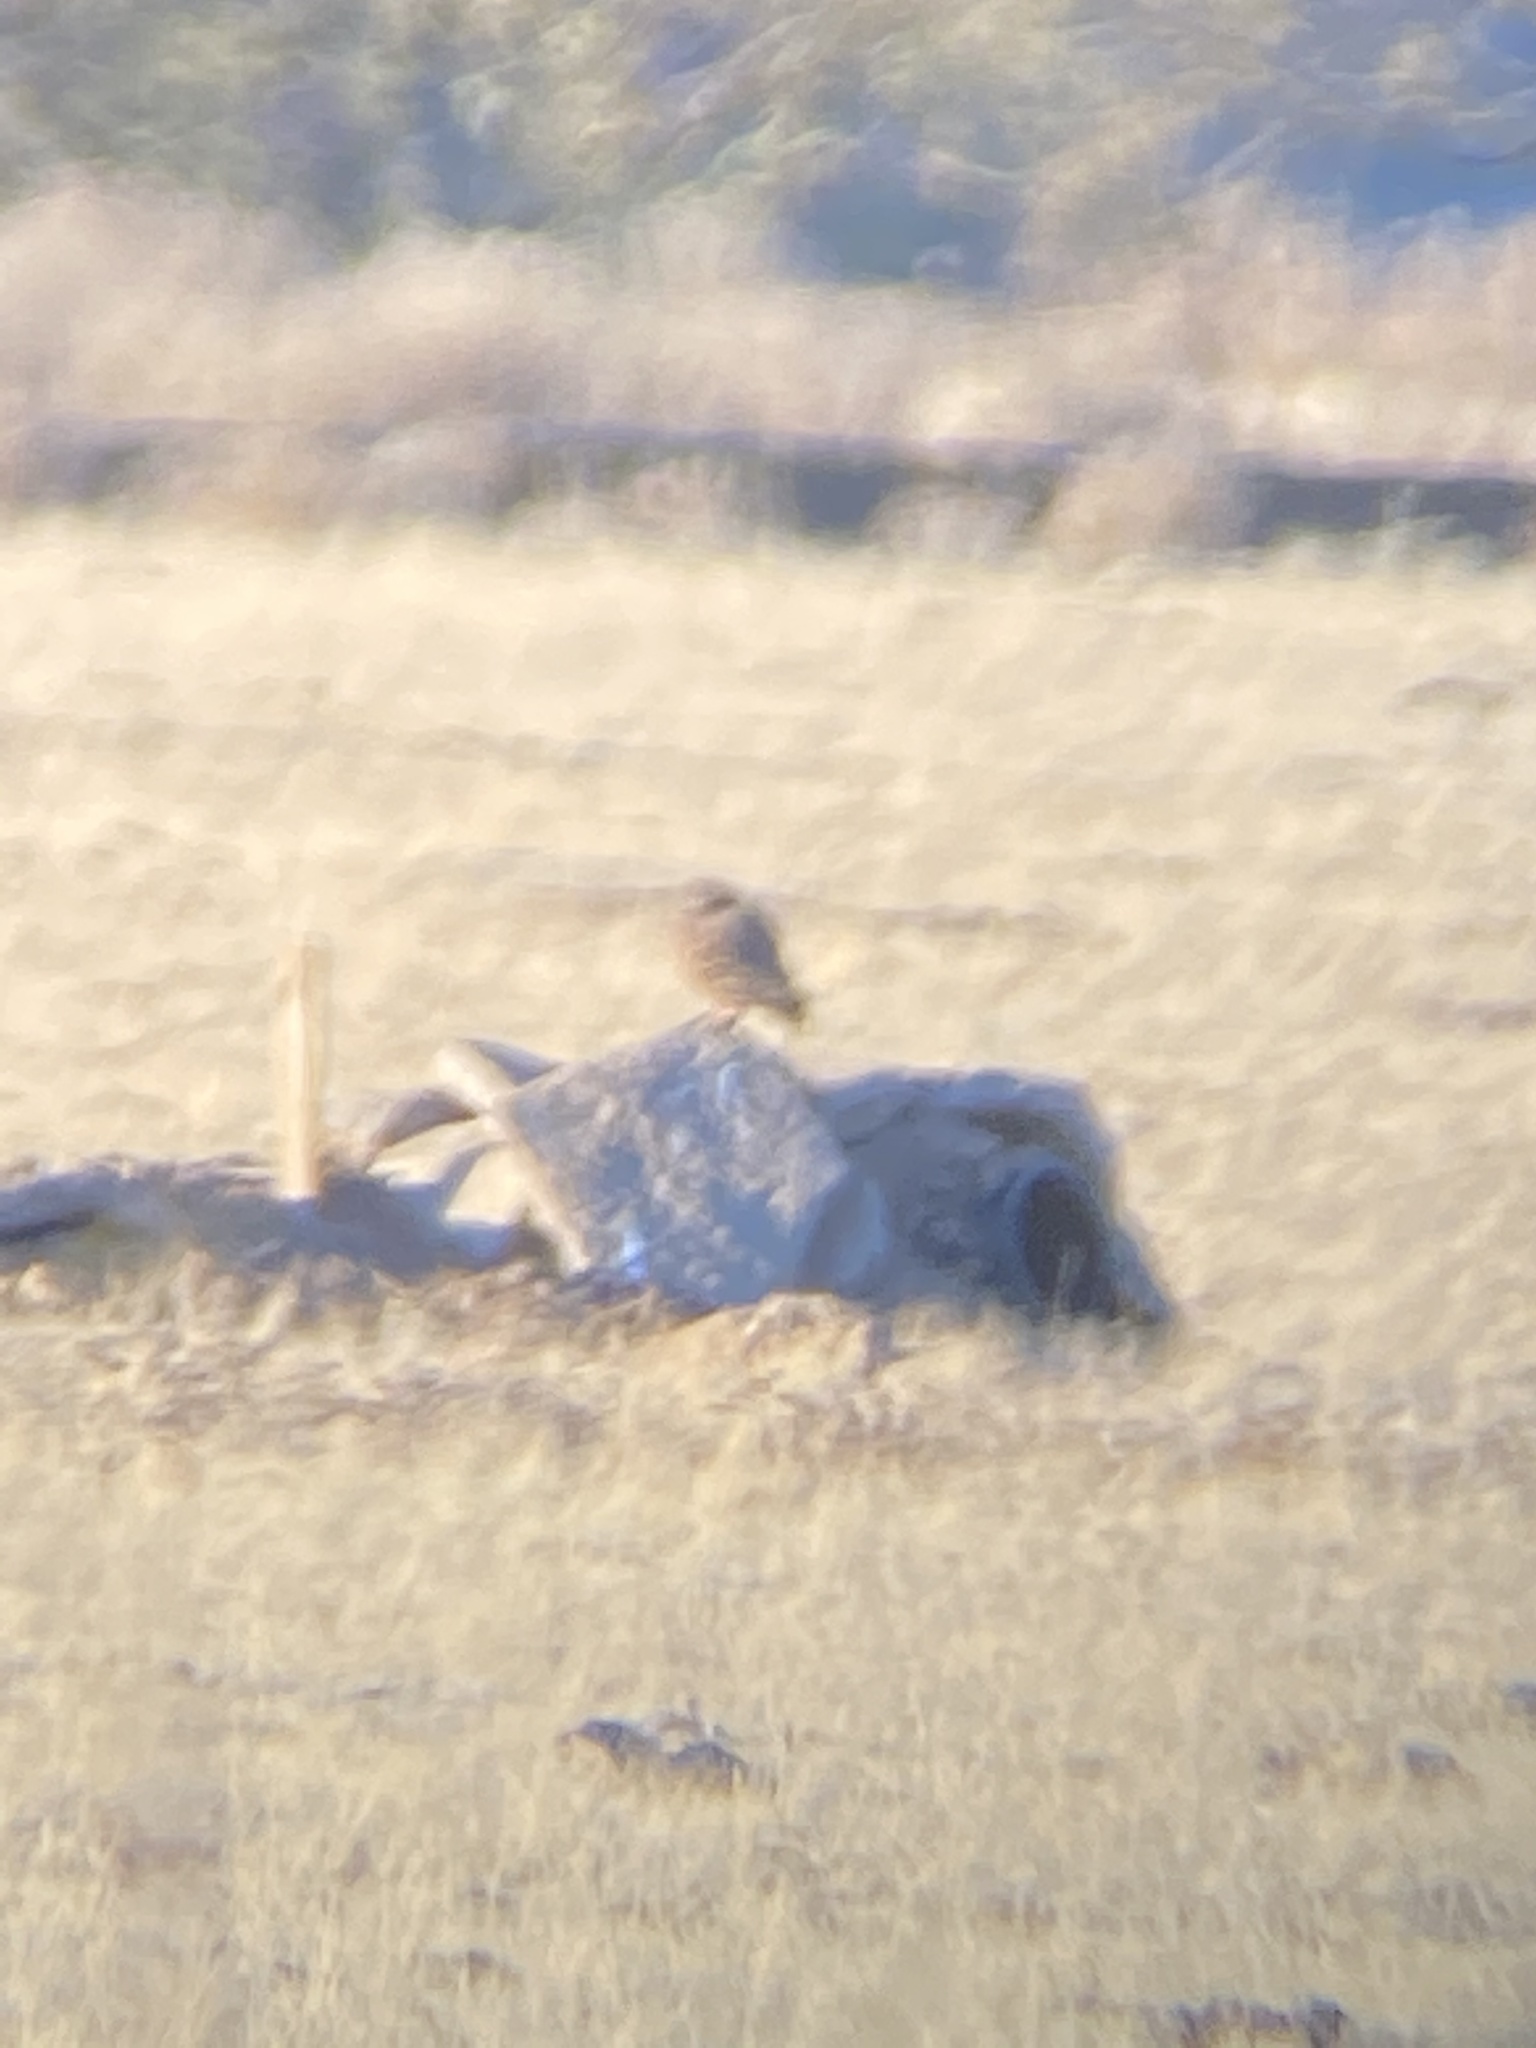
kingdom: Animalia
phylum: Chordata
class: Aves
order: Strigiformes
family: Strigidae
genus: Athene
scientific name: Athene cunicularia
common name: Burrowing owl
